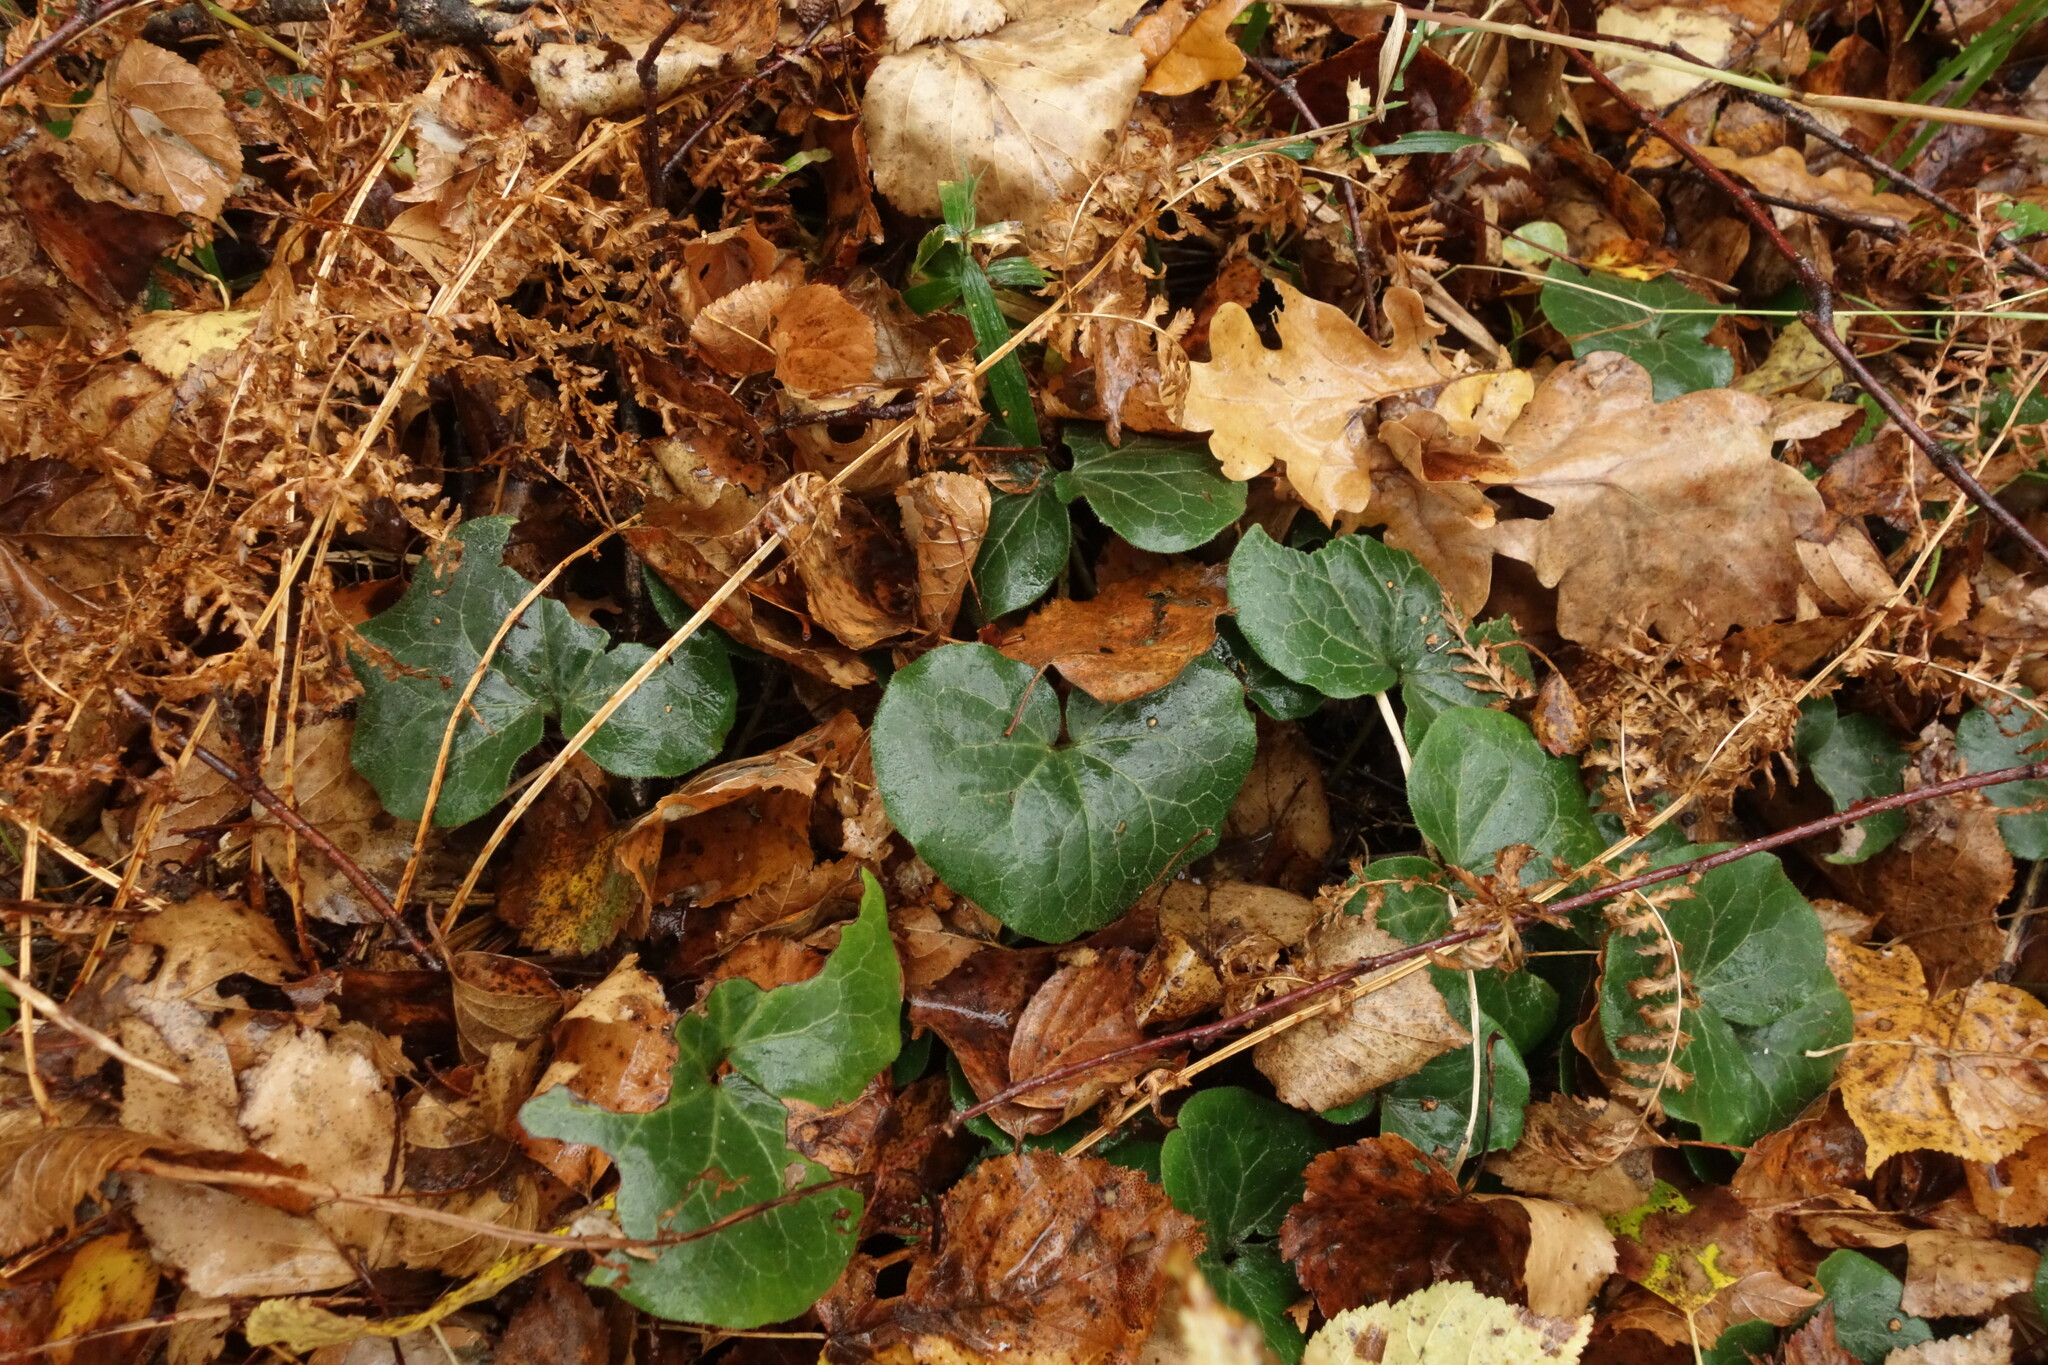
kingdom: Plantae
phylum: Tracheophyta
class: Magnoliopsida
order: Piperales
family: Aristolochiaceae
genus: Asarum
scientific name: Asarum europaeum
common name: Asarabacca
